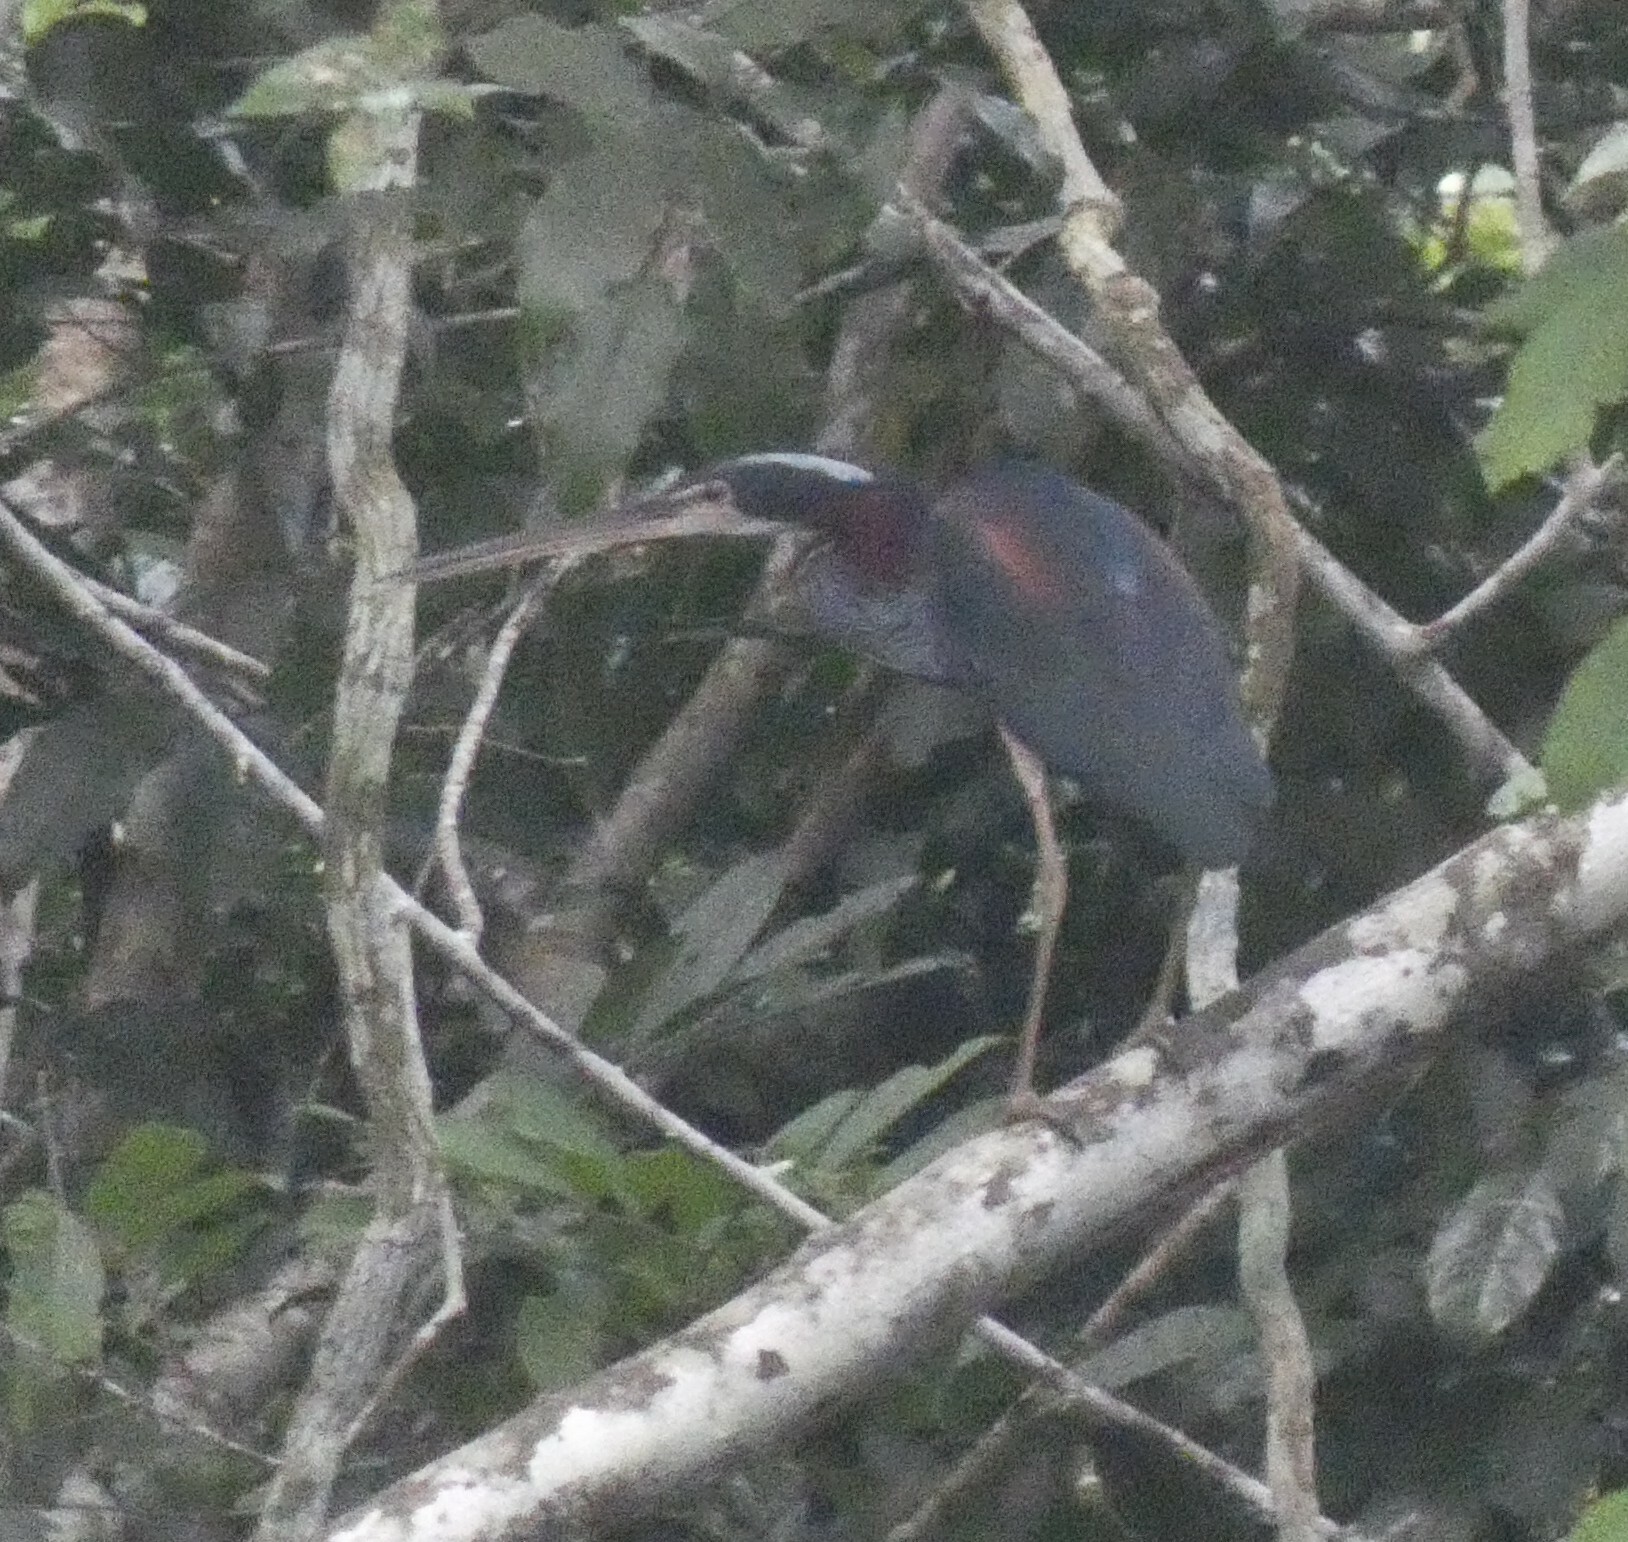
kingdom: Animalia
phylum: Chordata
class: Aves
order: Pelecaniformes
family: Ardeidae
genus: Agamia
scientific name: Agamia agami
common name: Agami heron
